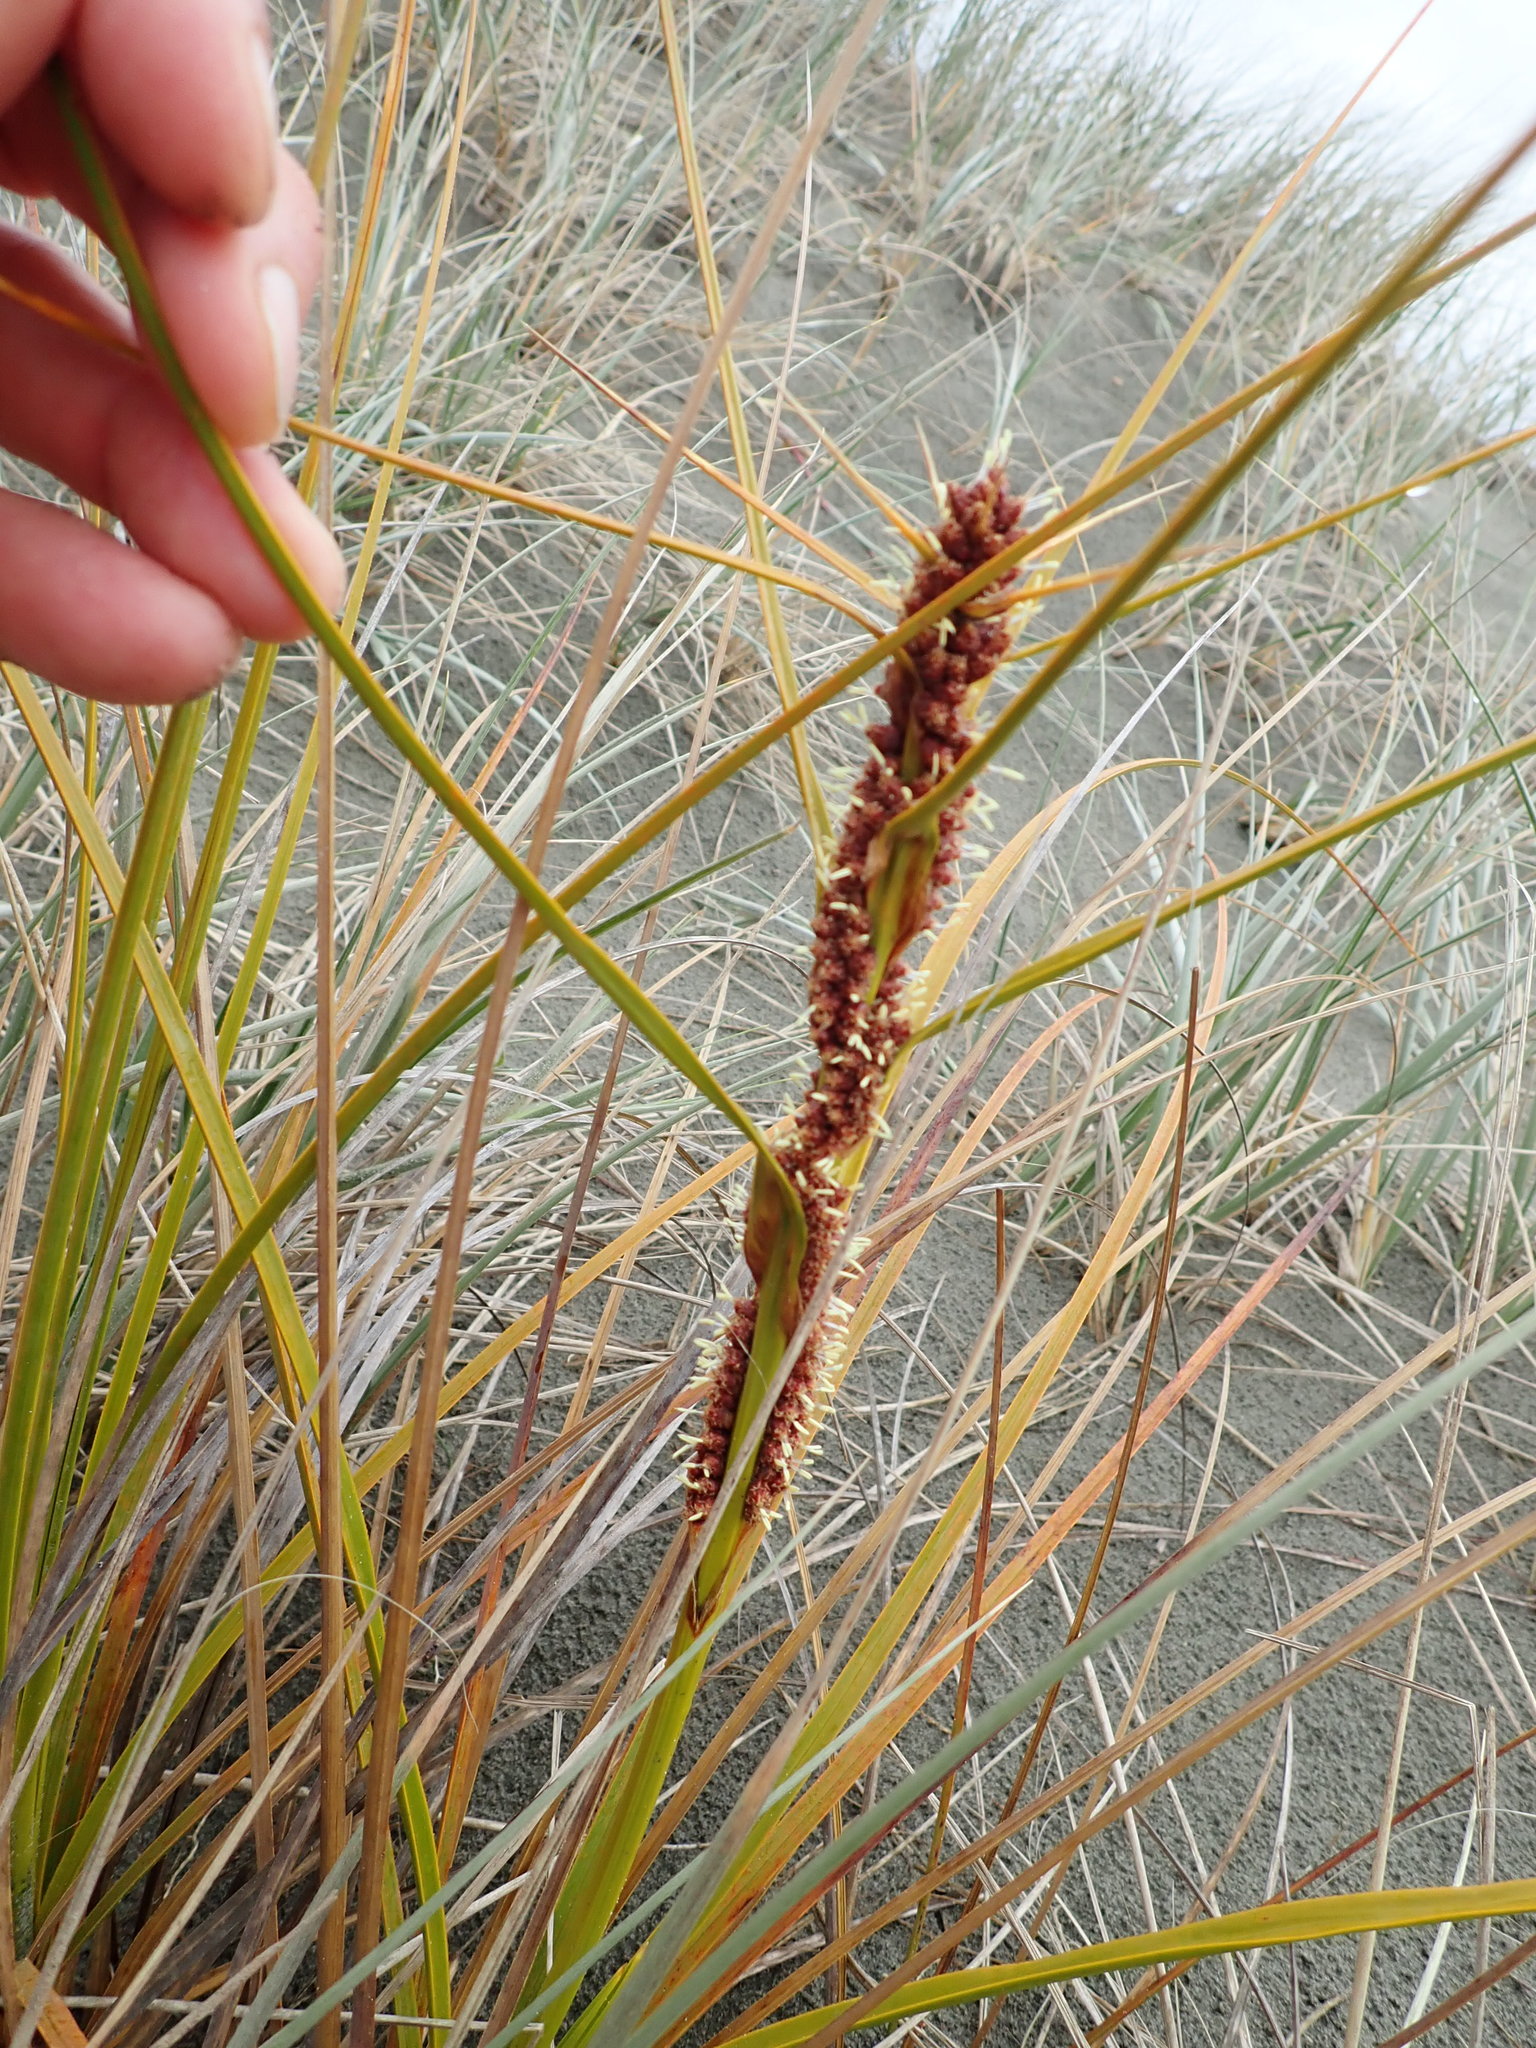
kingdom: Plantae
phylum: Tracheophyta
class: Liliopsida
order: Poales
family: Cyperaceae
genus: Ficinia
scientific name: Ficinia spiralis
